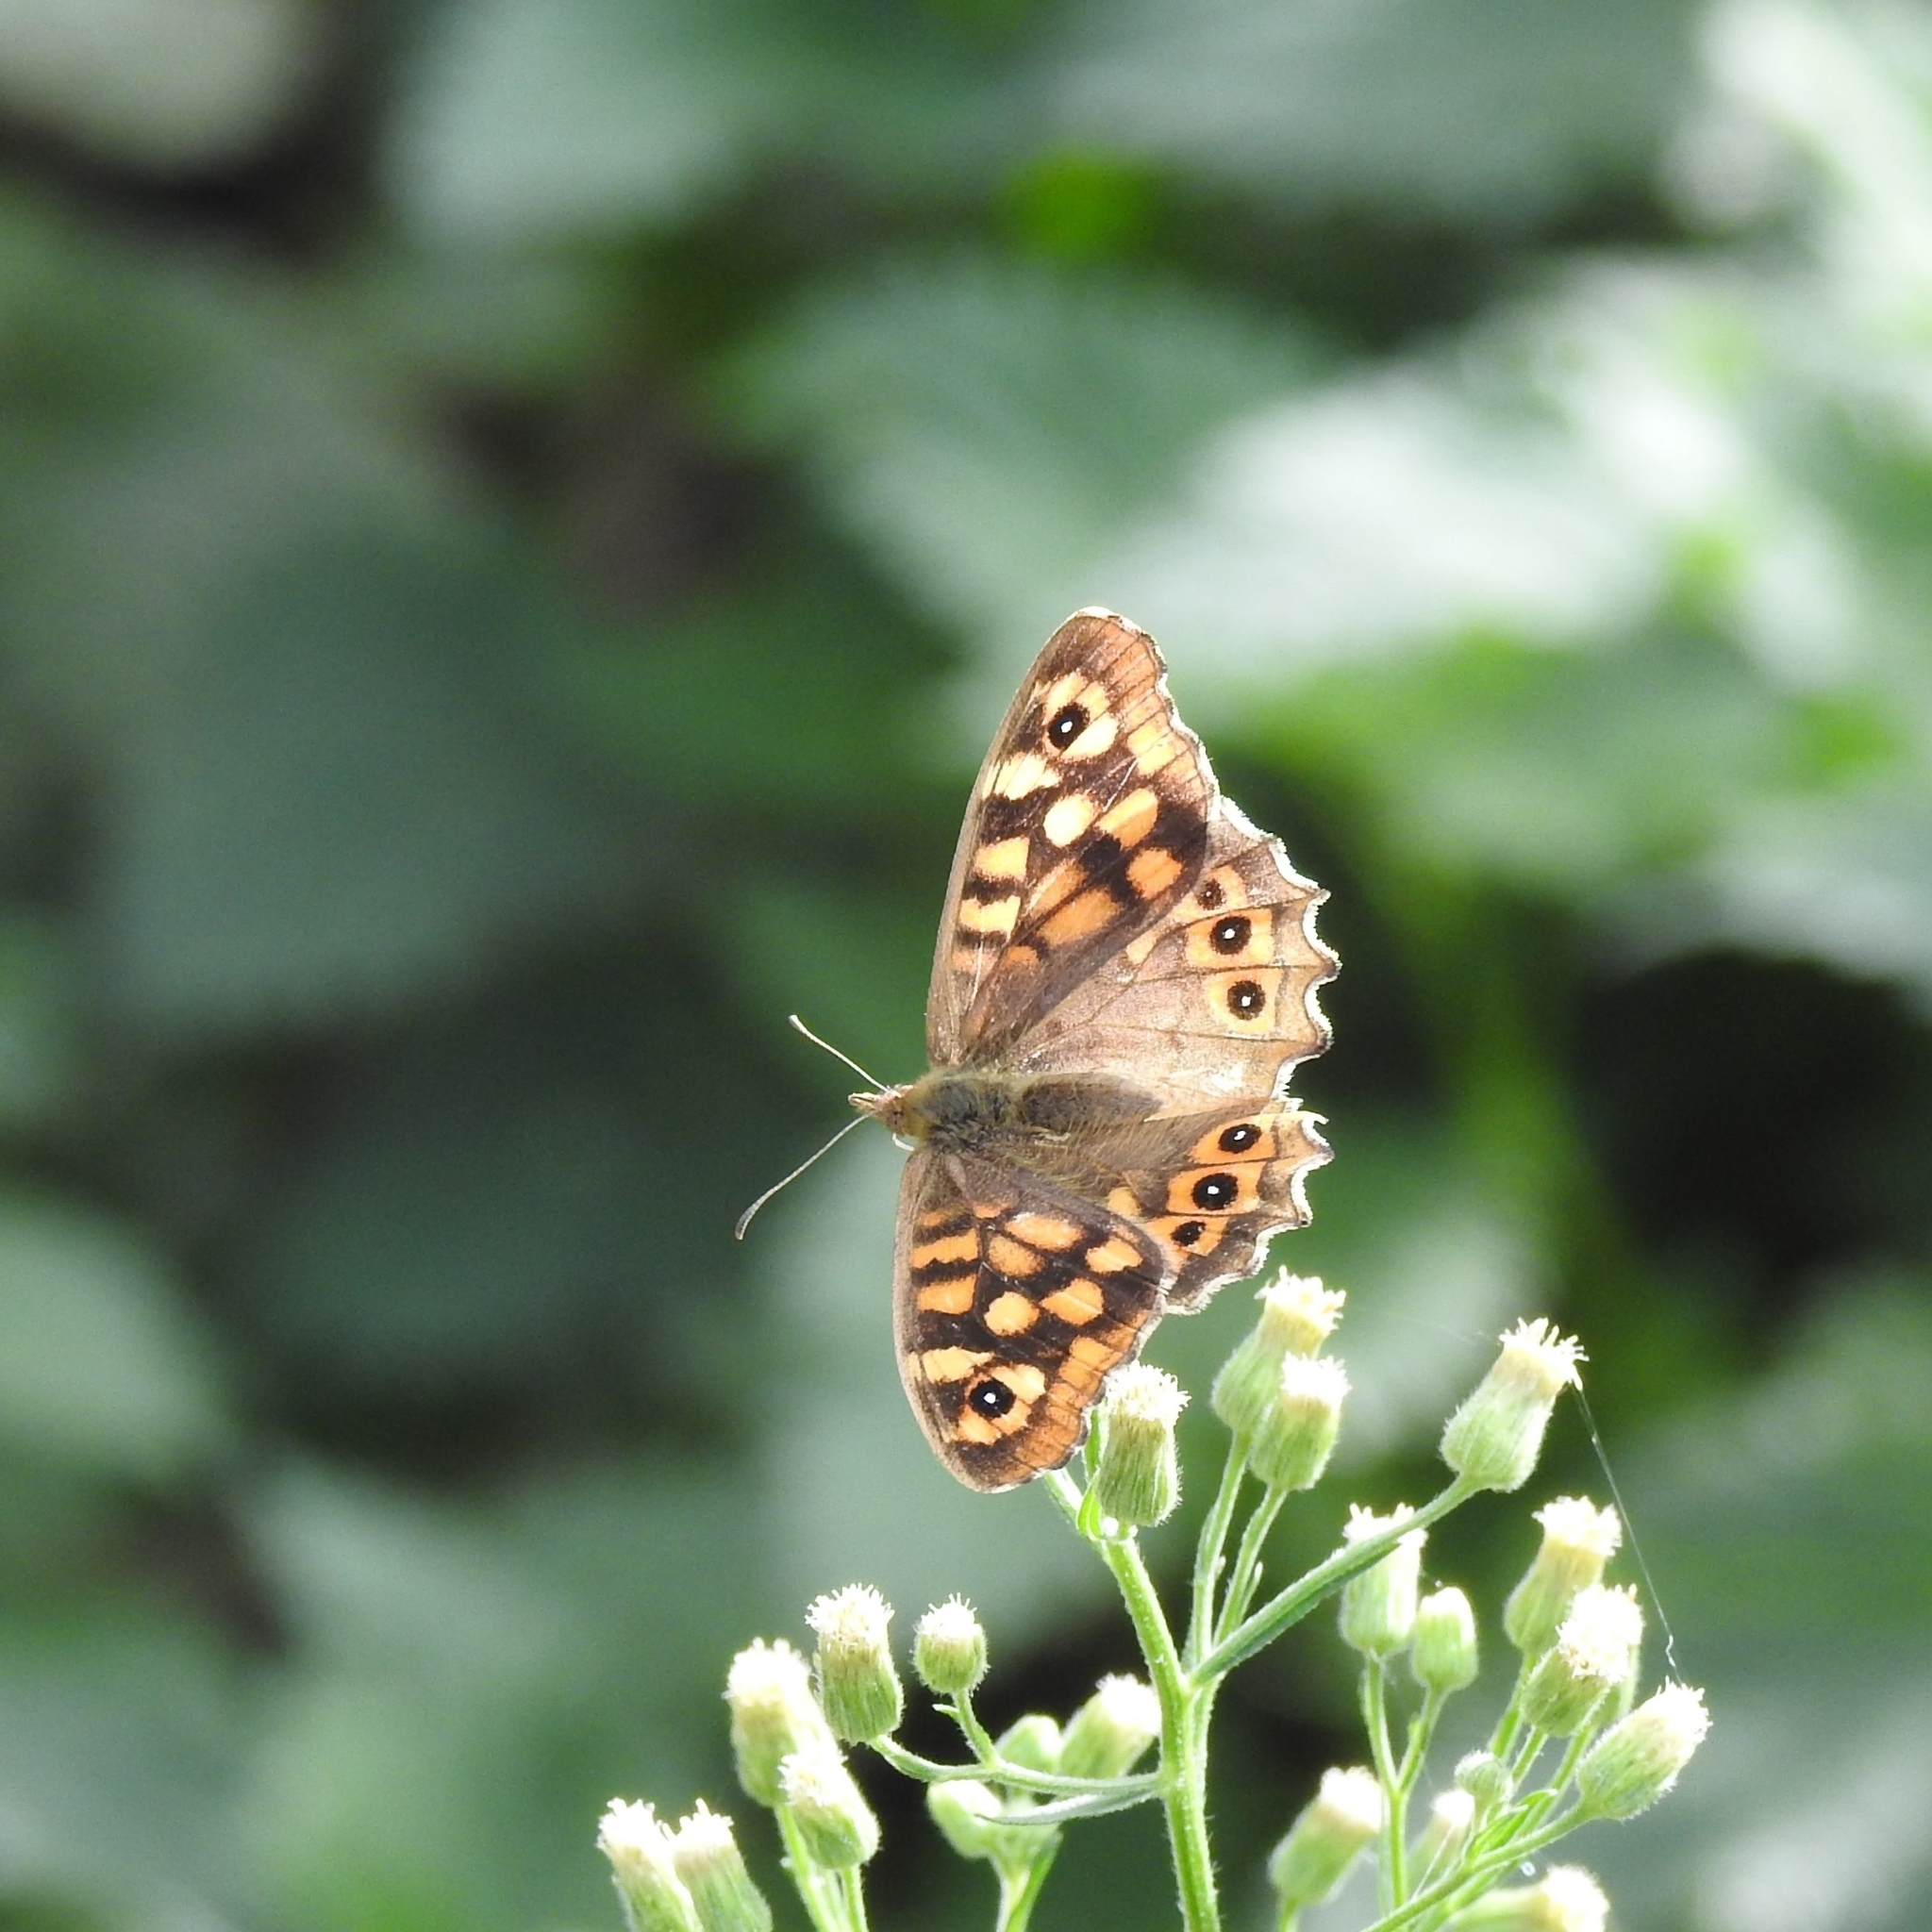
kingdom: Animalia
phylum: Arthropoda
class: Insecta
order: Lepidoptera
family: Nymphalidae
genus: Pararge
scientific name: Pararge aegeria
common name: Speckled wood
